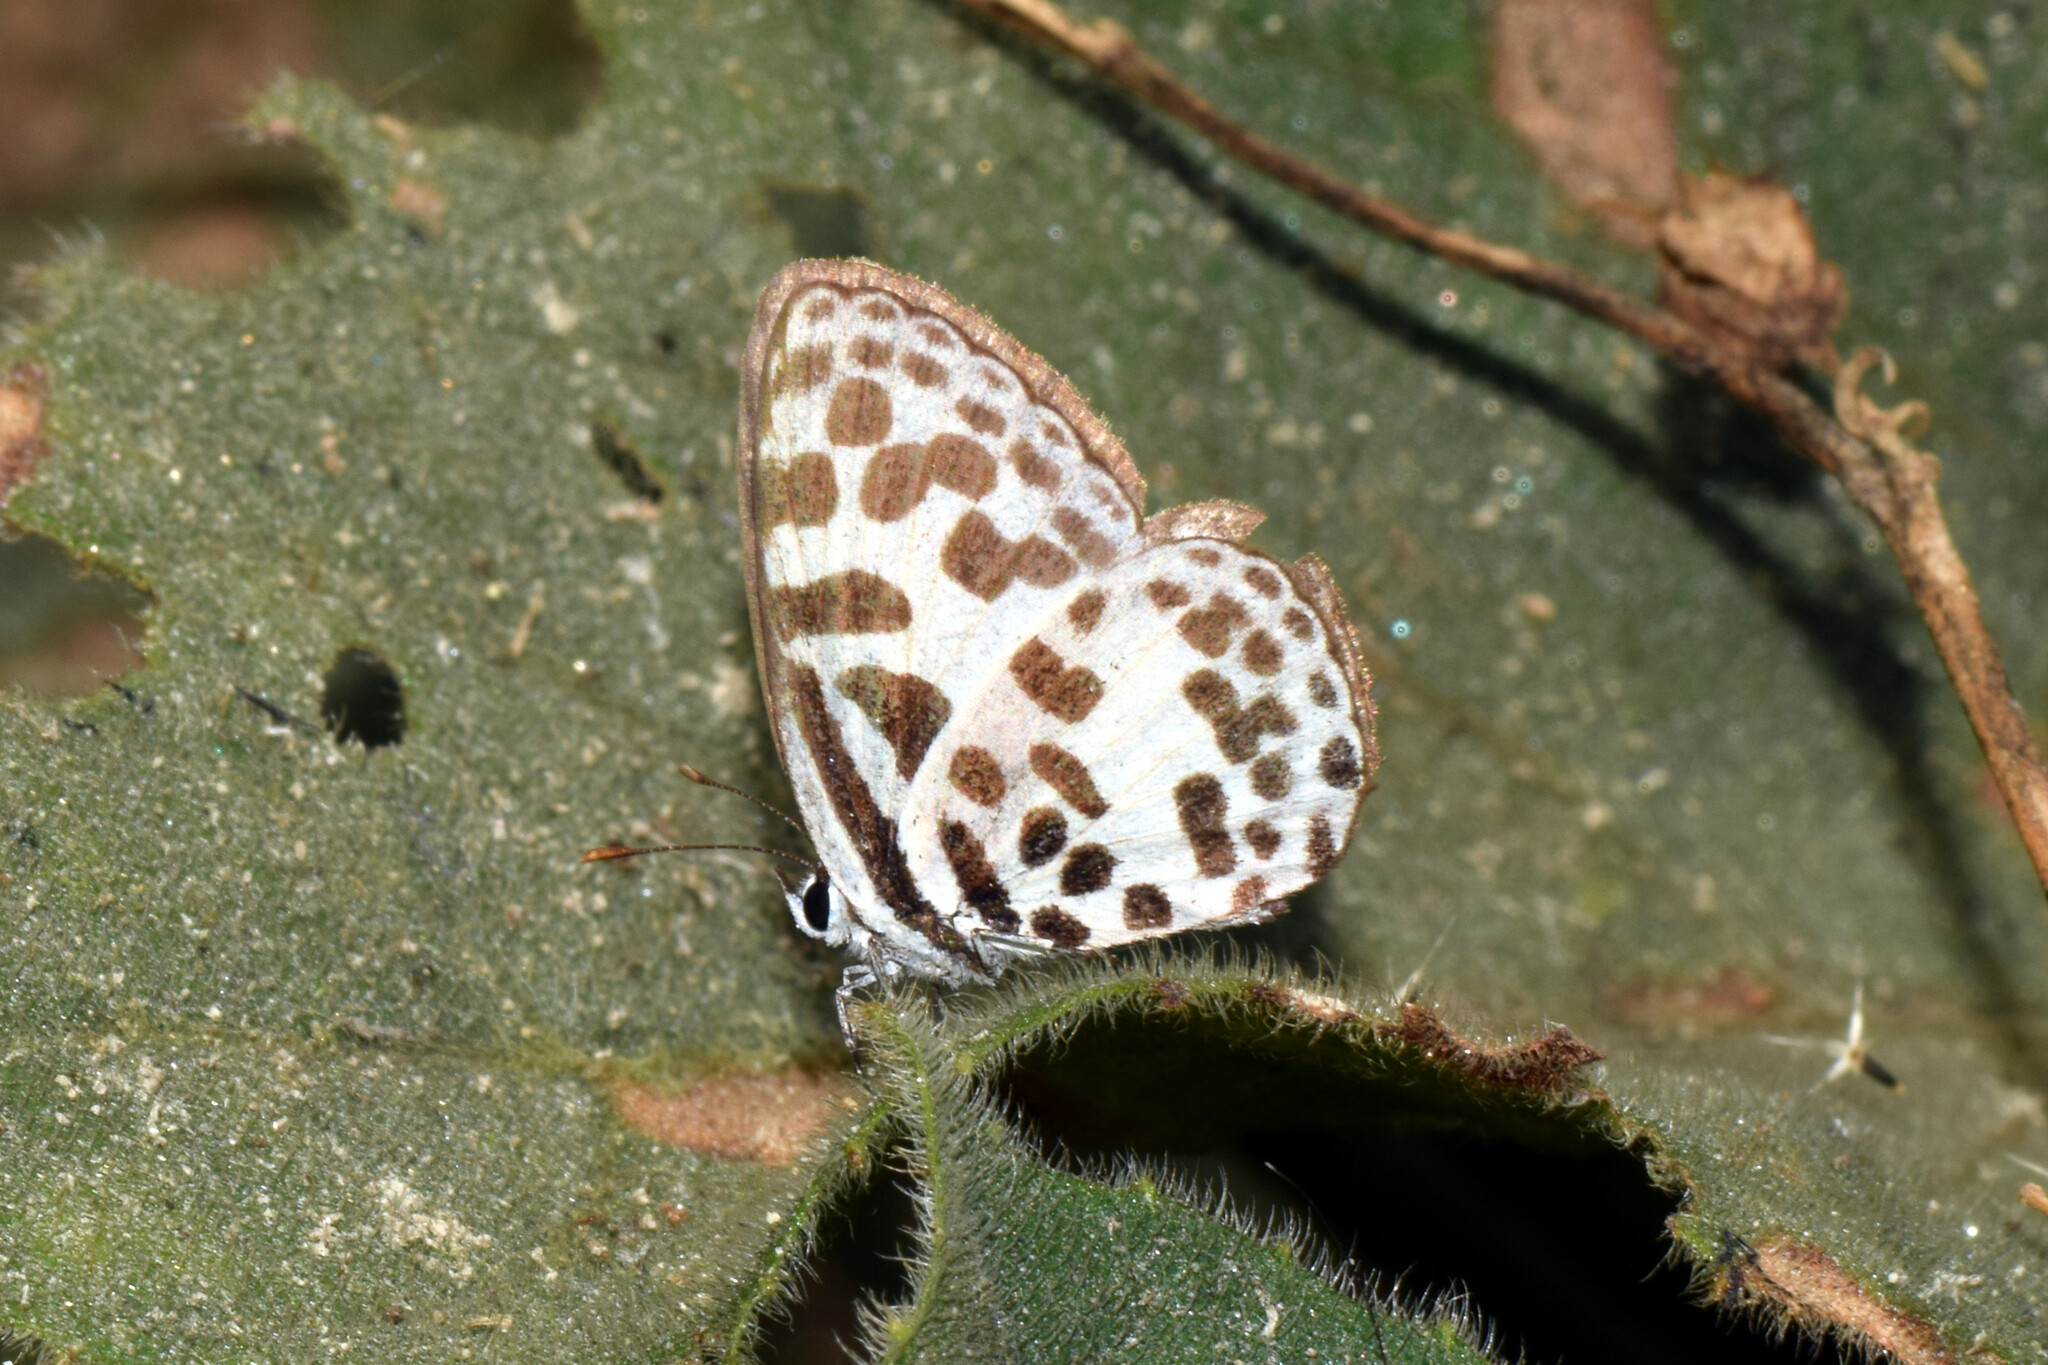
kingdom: Animalia
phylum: Arthropoda
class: Insecta
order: Lepidoptera
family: Lycaenidae
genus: Castalius
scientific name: Castalius rosimon
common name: Common pierrot
